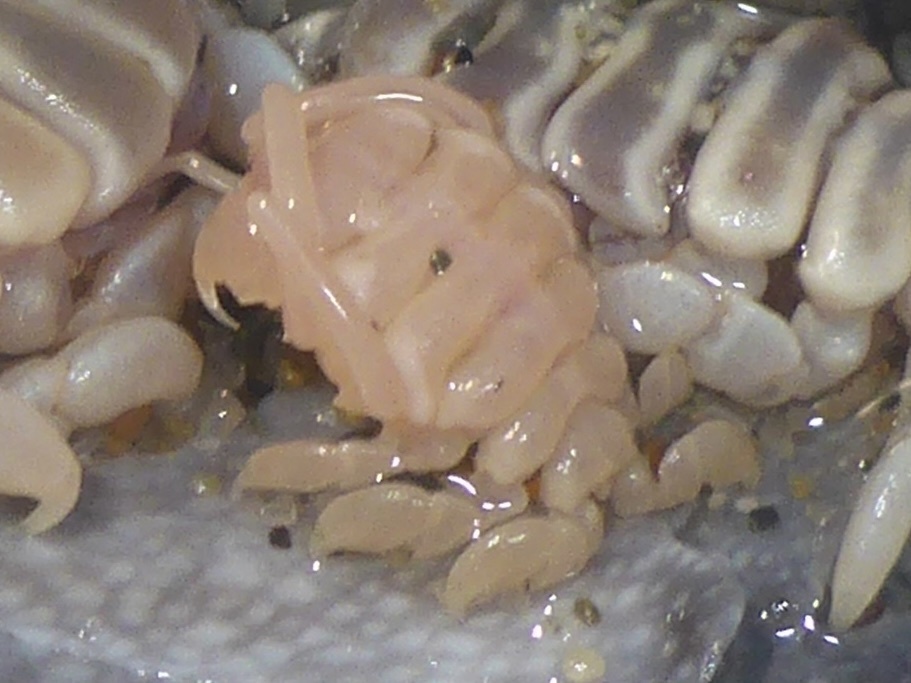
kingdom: Animalia
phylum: Arthropoda
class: Malacostraca
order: Amphipoda
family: Cyamidae
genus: Cyamus
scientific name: Cyamus eschrichtii
